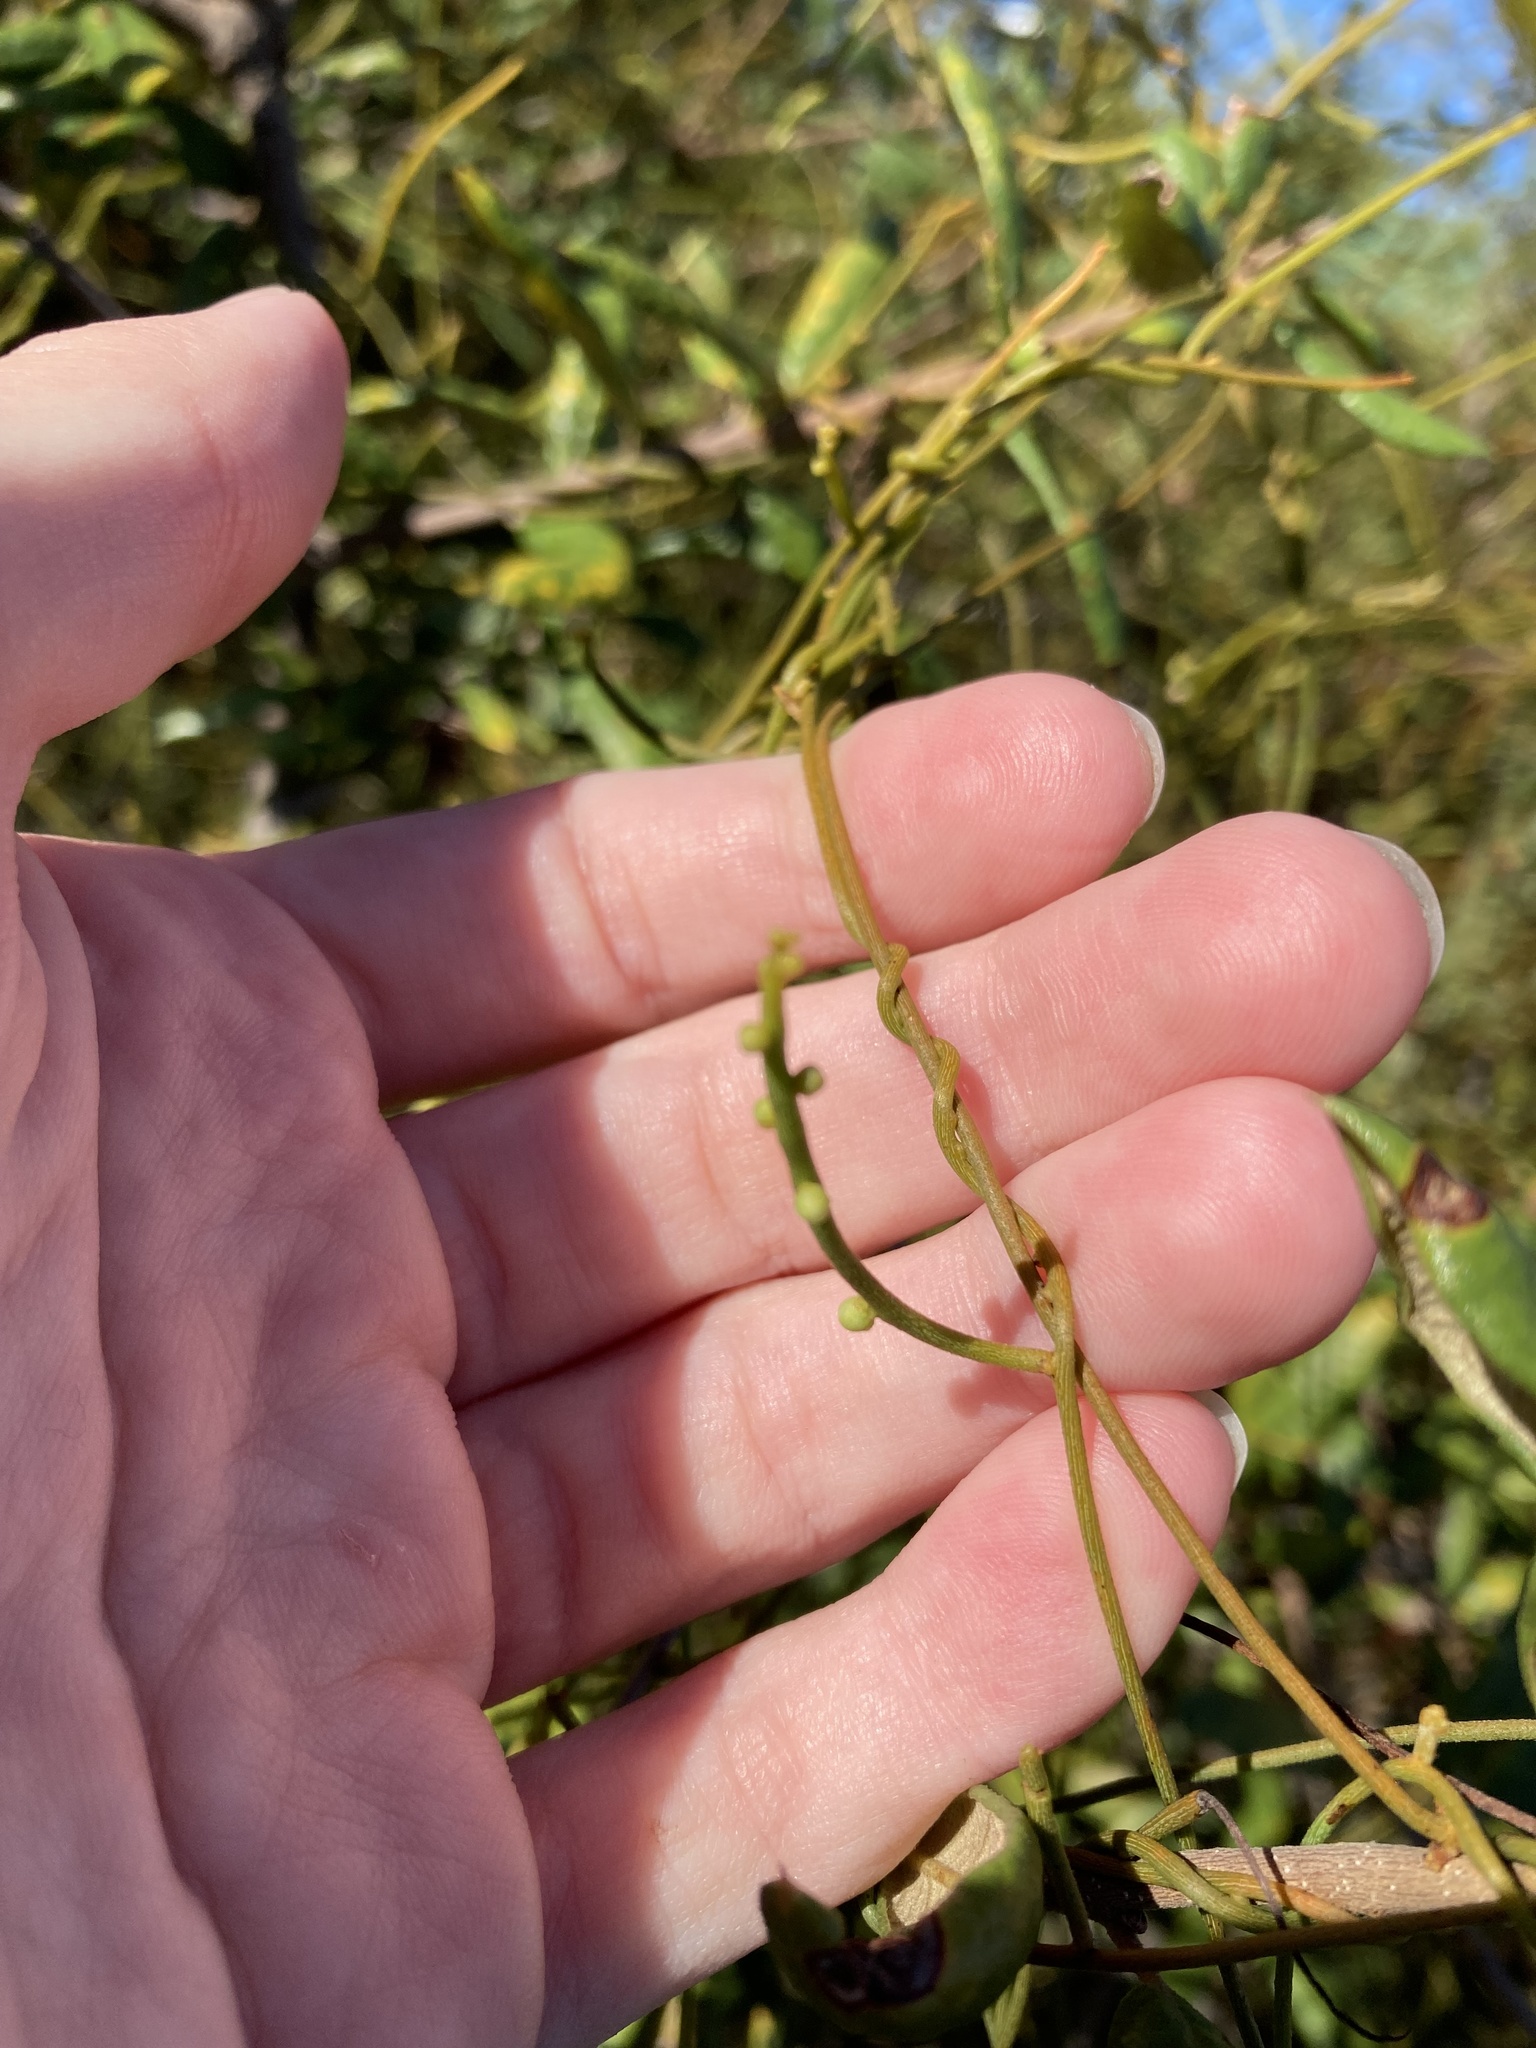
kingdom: Plantae
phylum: Tracheophyta
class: Magnoliopsida
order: Laurales
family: Lauraceae
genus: Cassytha
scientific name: Cassytha filiformis
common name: Dodder-laurel
